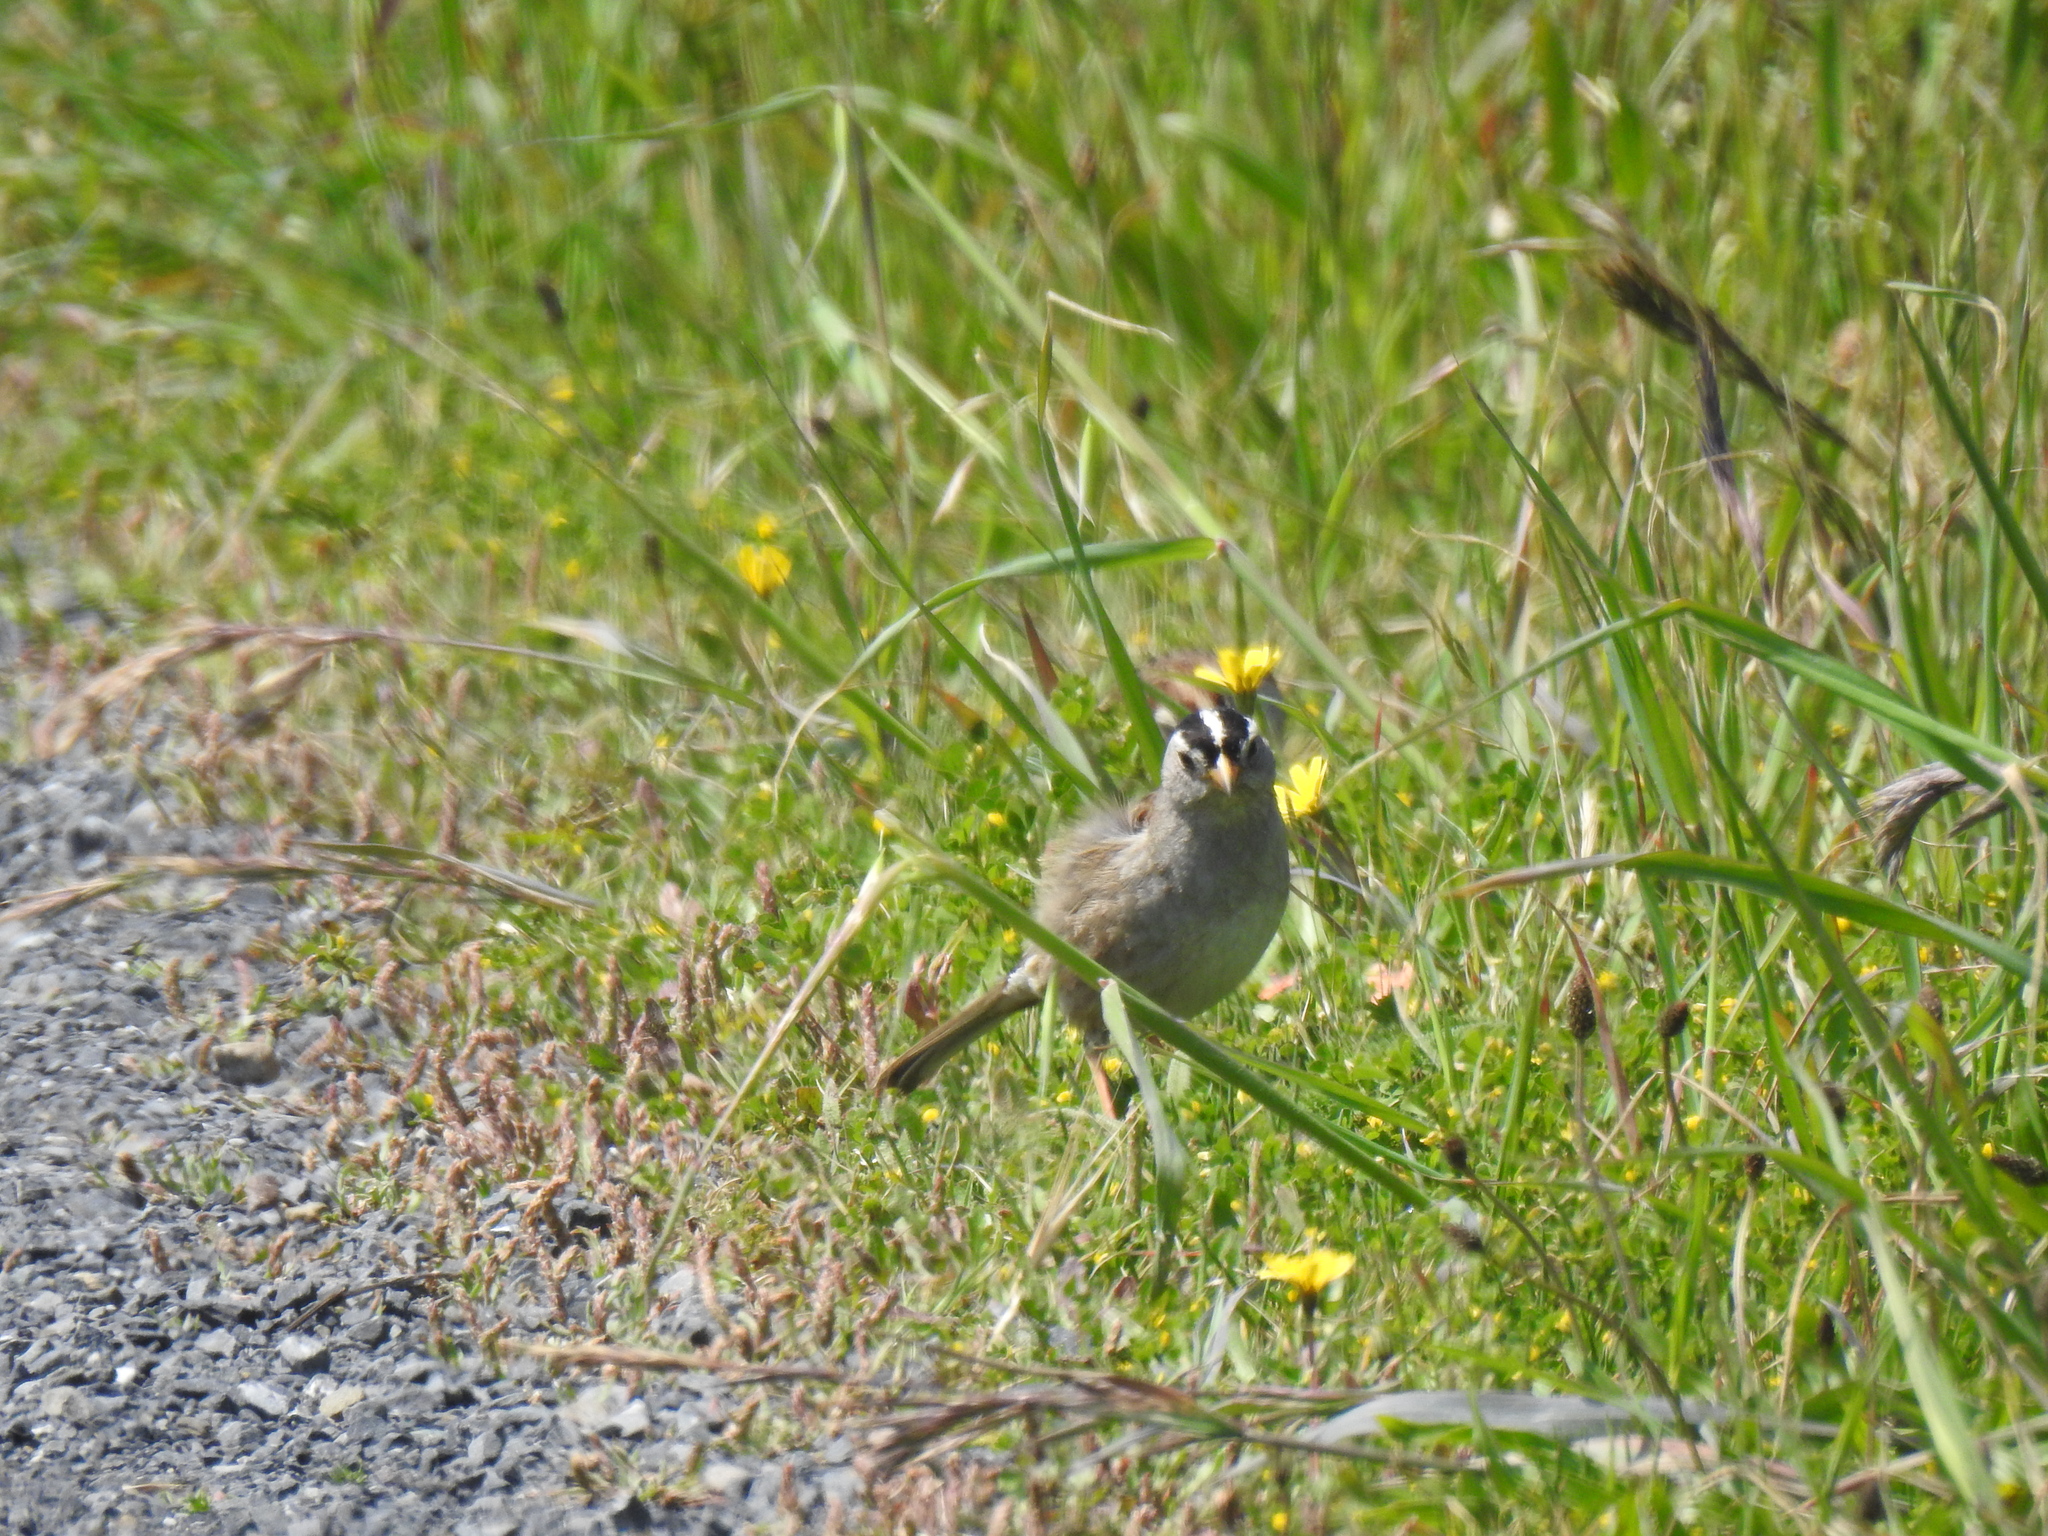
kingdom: Animalia
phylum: Chordata
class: Aves
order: Passeriformes
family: Passerellidae
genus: Zonotrichia
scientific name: Zonotrichia leucophrys
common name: White-crowned sparrow
